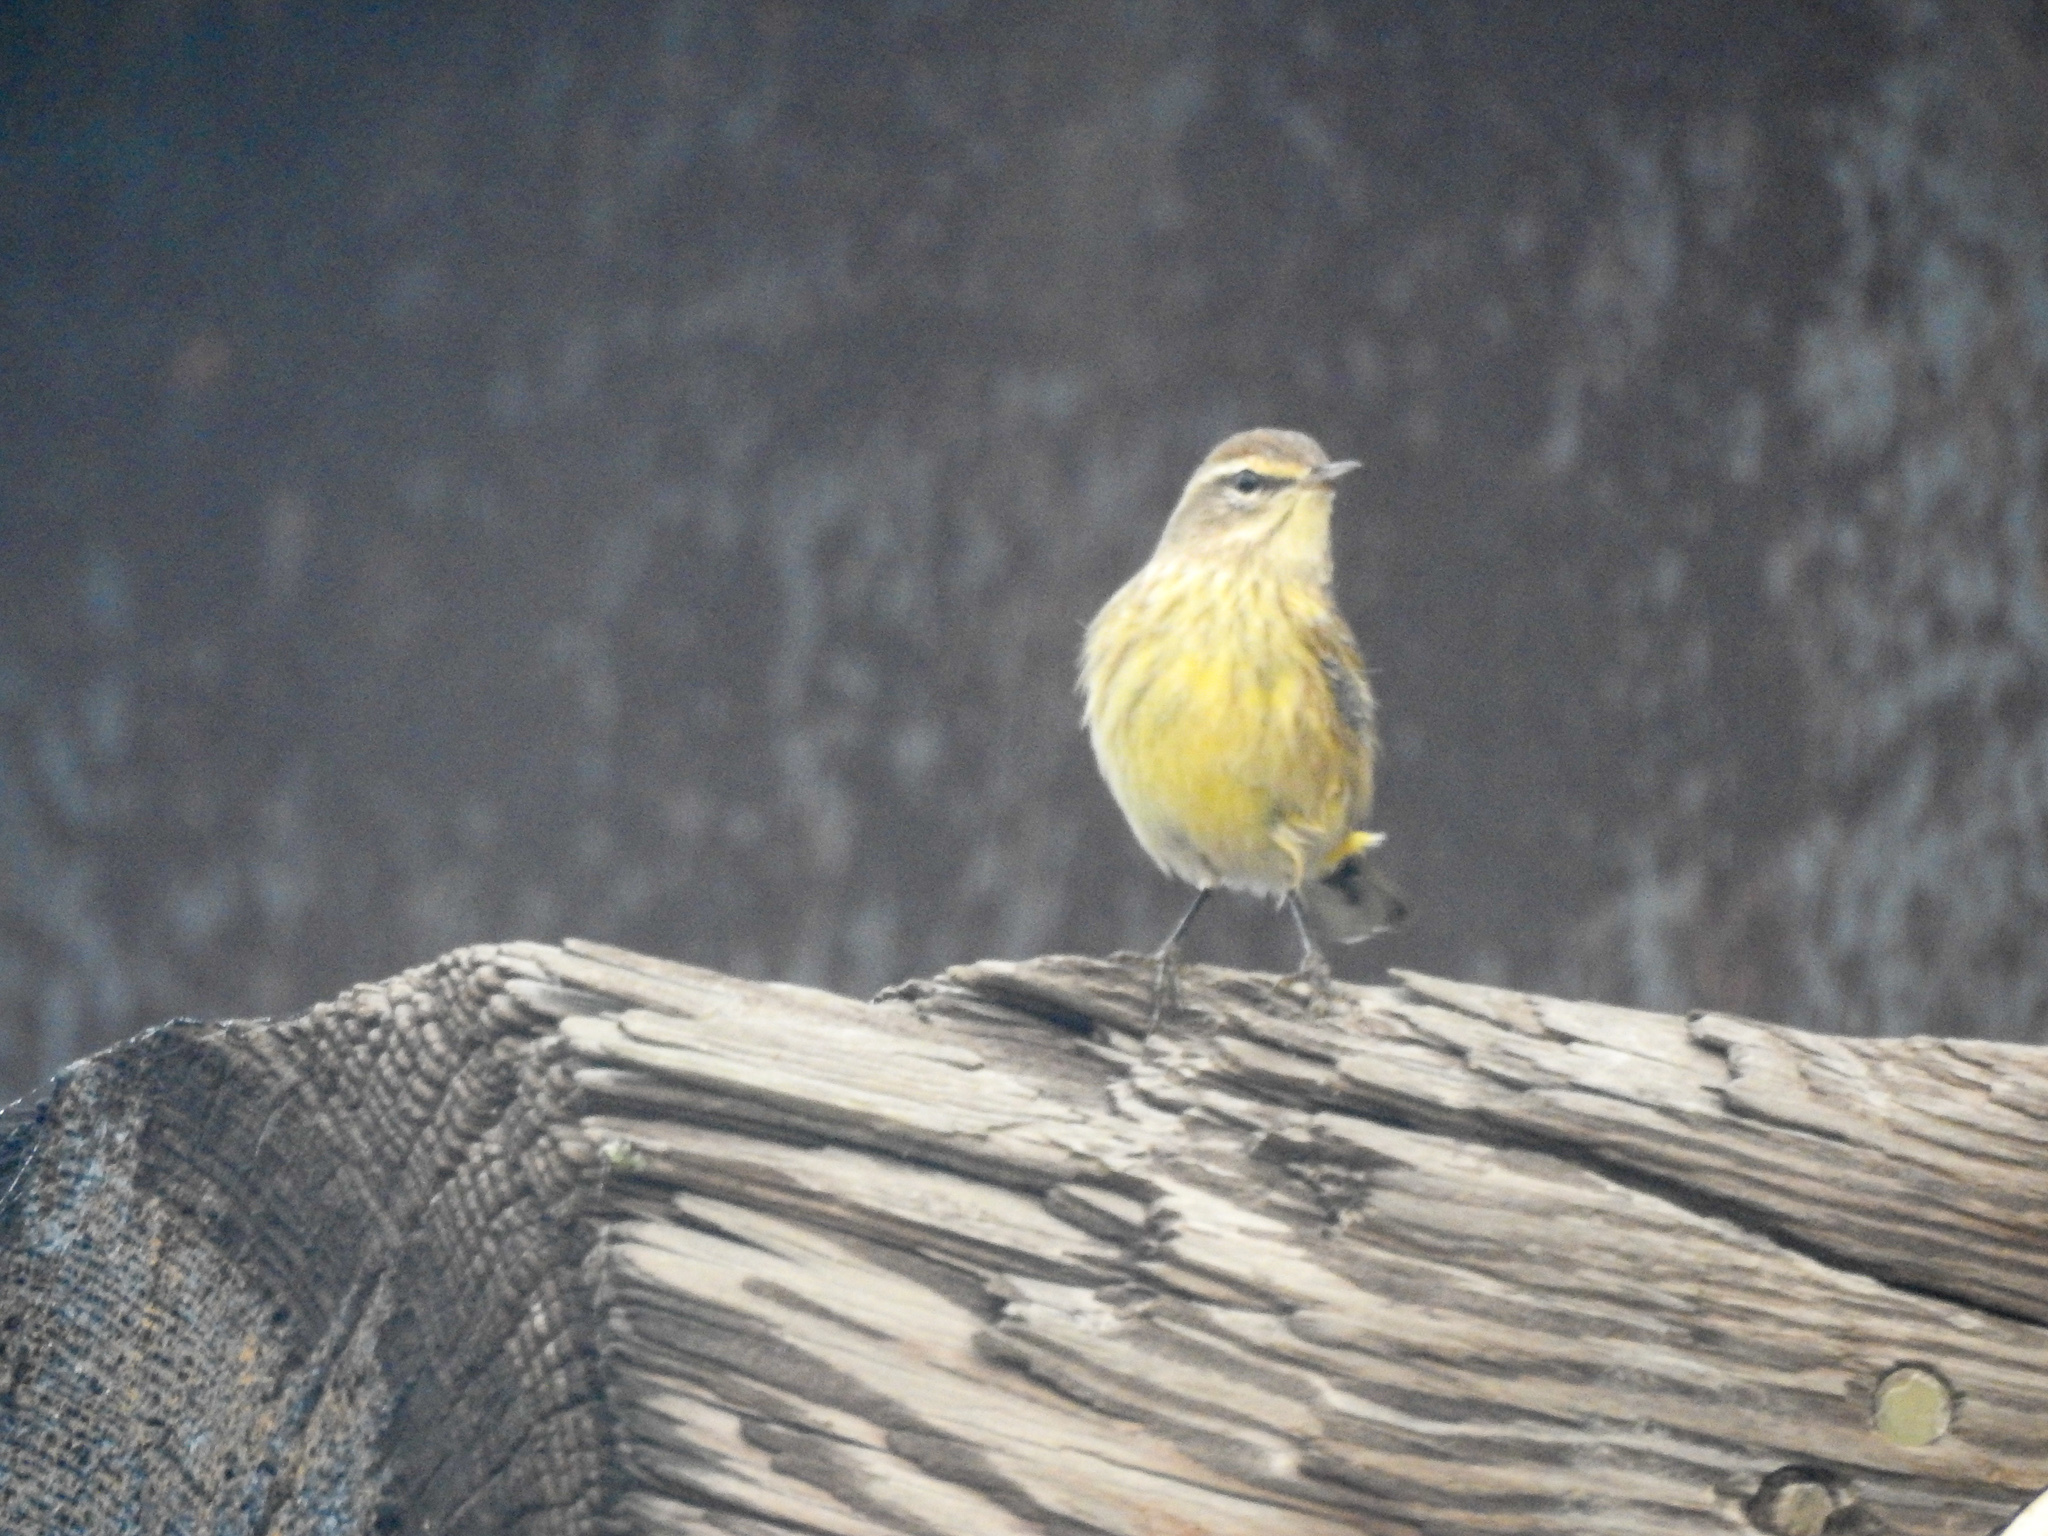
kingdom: Animalia
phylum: Chordata
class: Aves
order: Passeriformes
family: Parulidae
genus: Setophaga
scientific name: Setophaga palmarum
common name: Palm warbler
